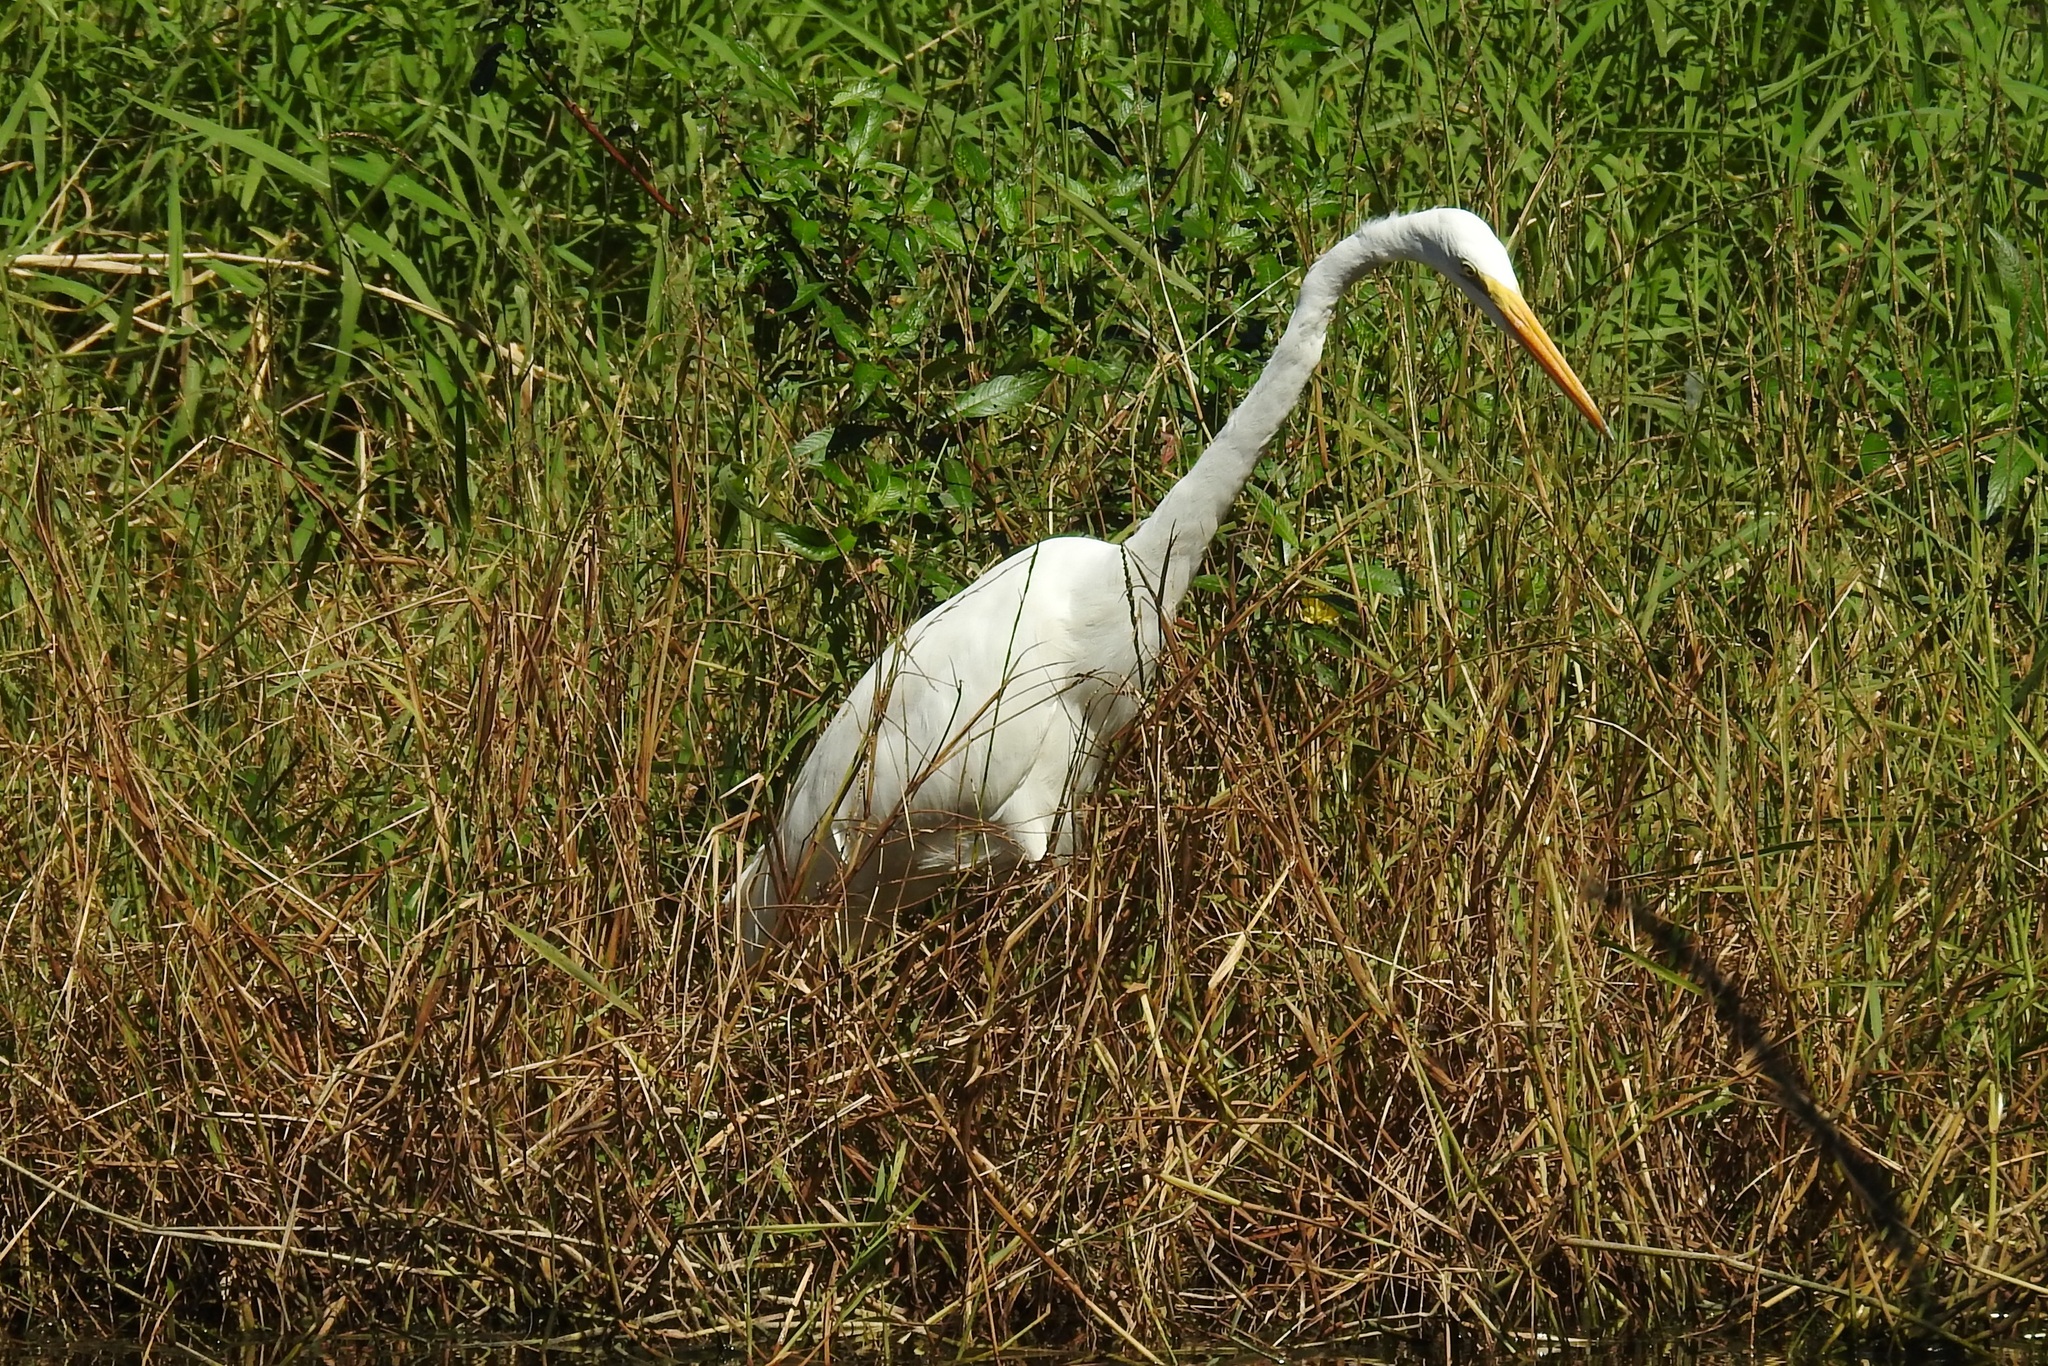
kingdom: Animalia
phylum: Chordata
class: Aves
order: Pelecaniformes
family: Ardeidae
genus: Ardea
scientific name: Ardea alba
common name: Great egret
